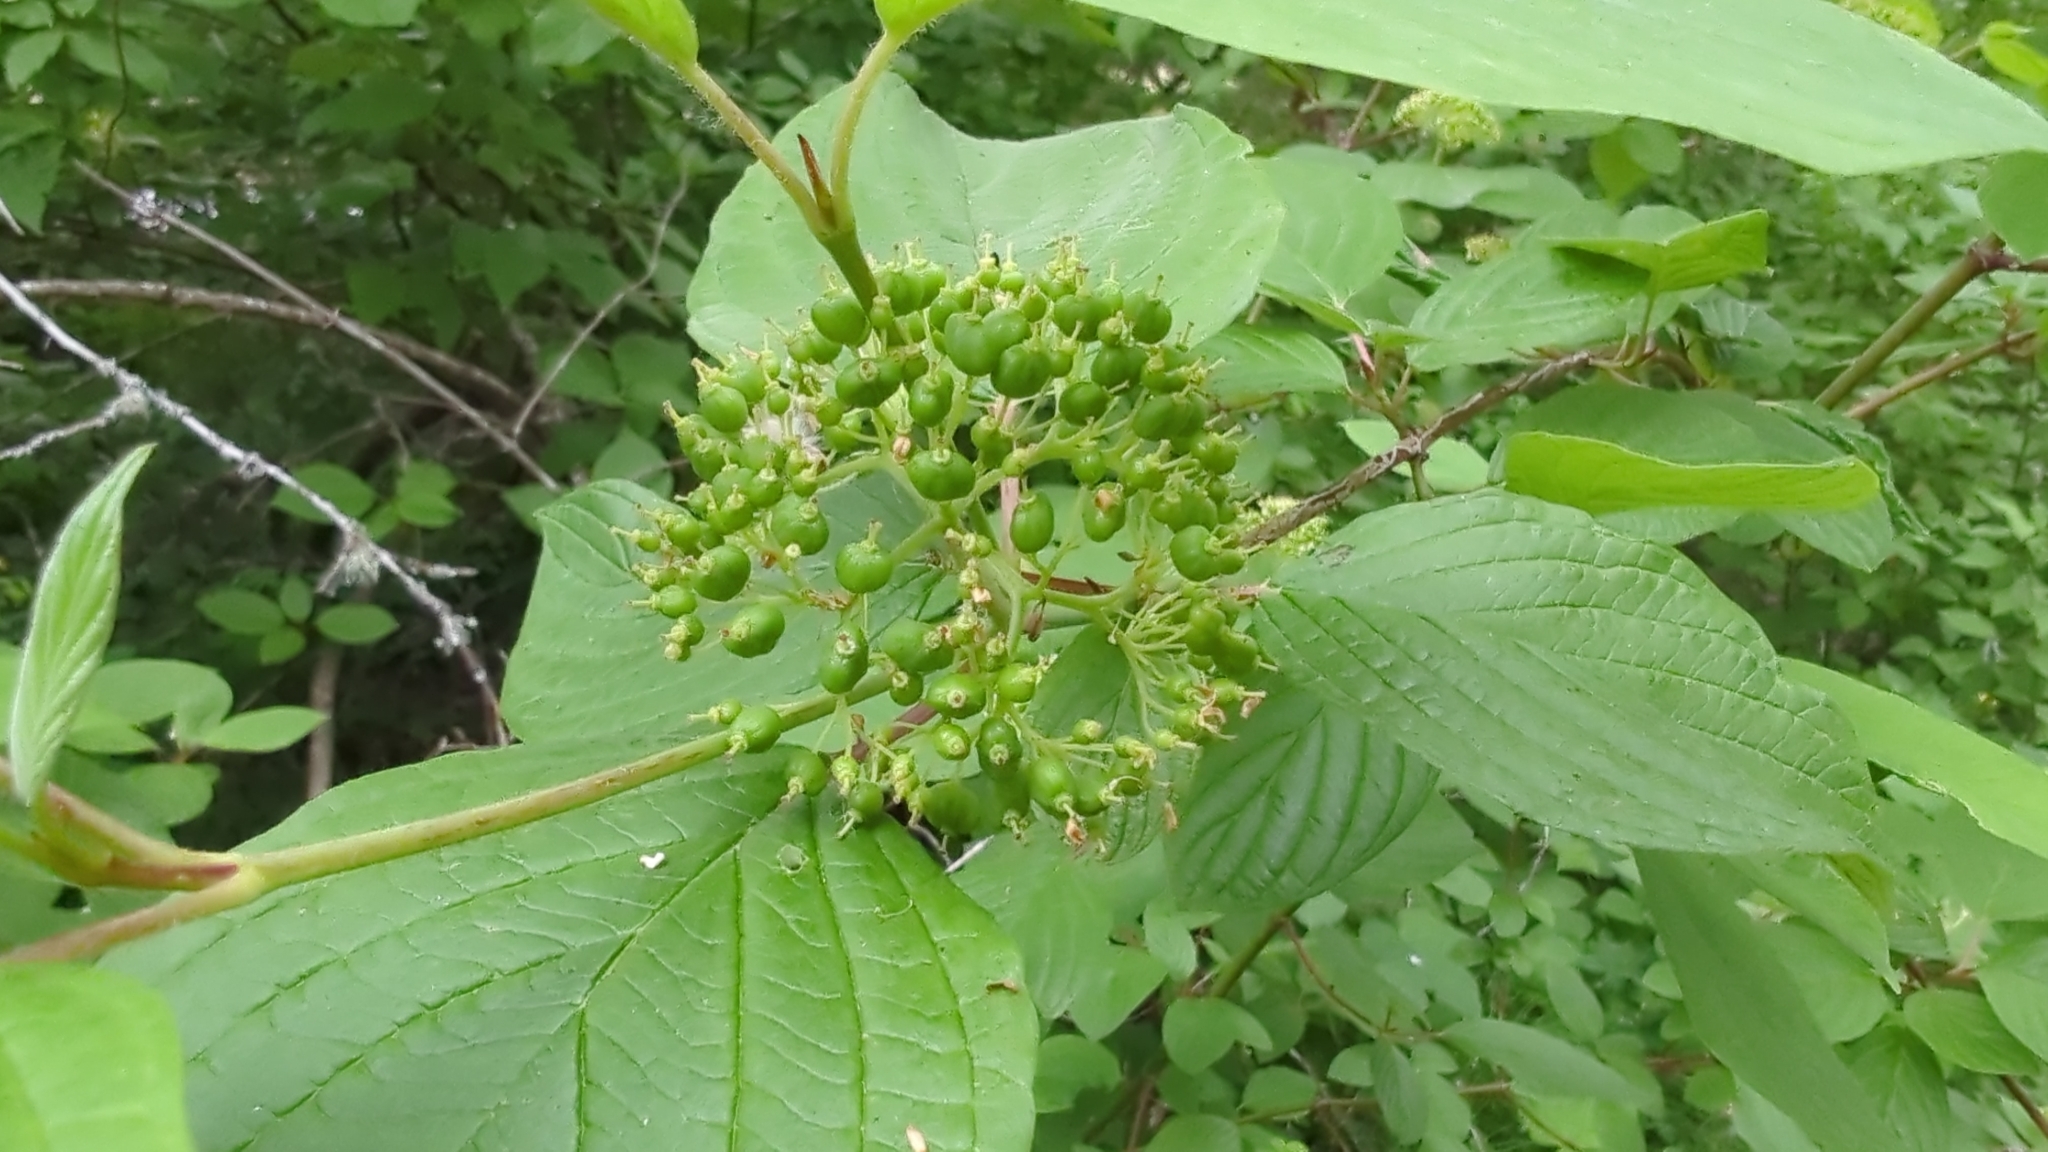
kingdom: Plantae
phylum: Tracheophyta
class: Magnoliopsida
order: Cornales
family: Cornaceae
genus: Cornus
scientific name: Cornus sericea
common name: Red-osier dogwood
